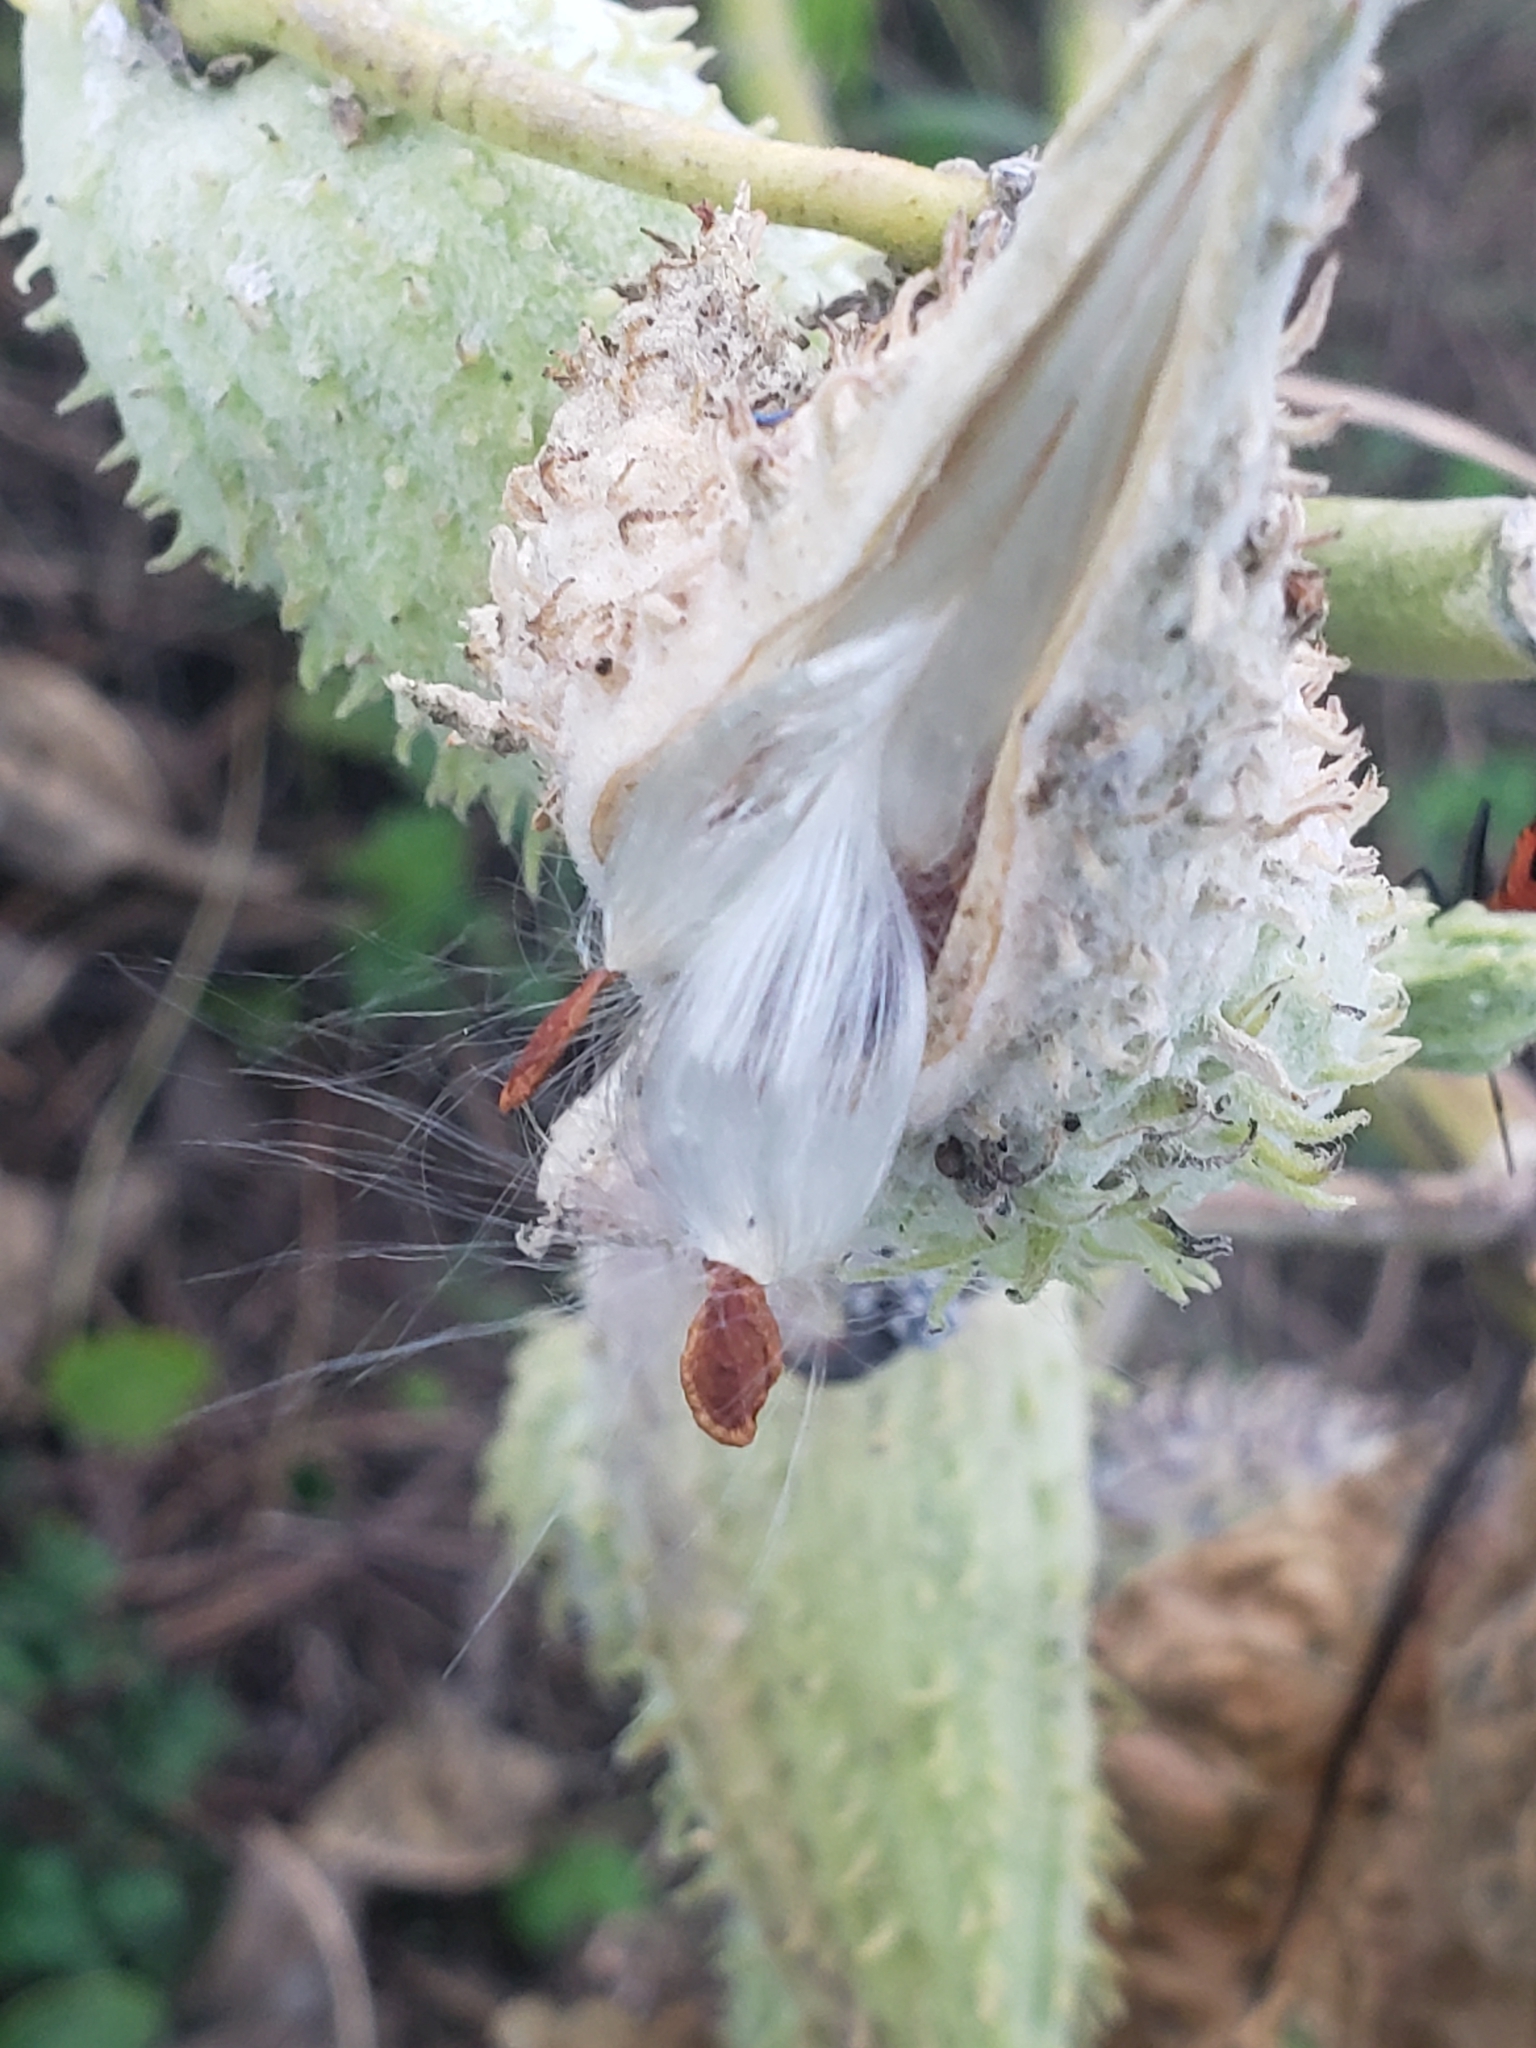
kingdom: Plantae
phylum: Tracheophyta
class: Magnoliopsida
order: Gentianales
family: Apocynaceae
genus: Asclepias
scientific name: Asclepias syriaca
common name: Common milkweed
